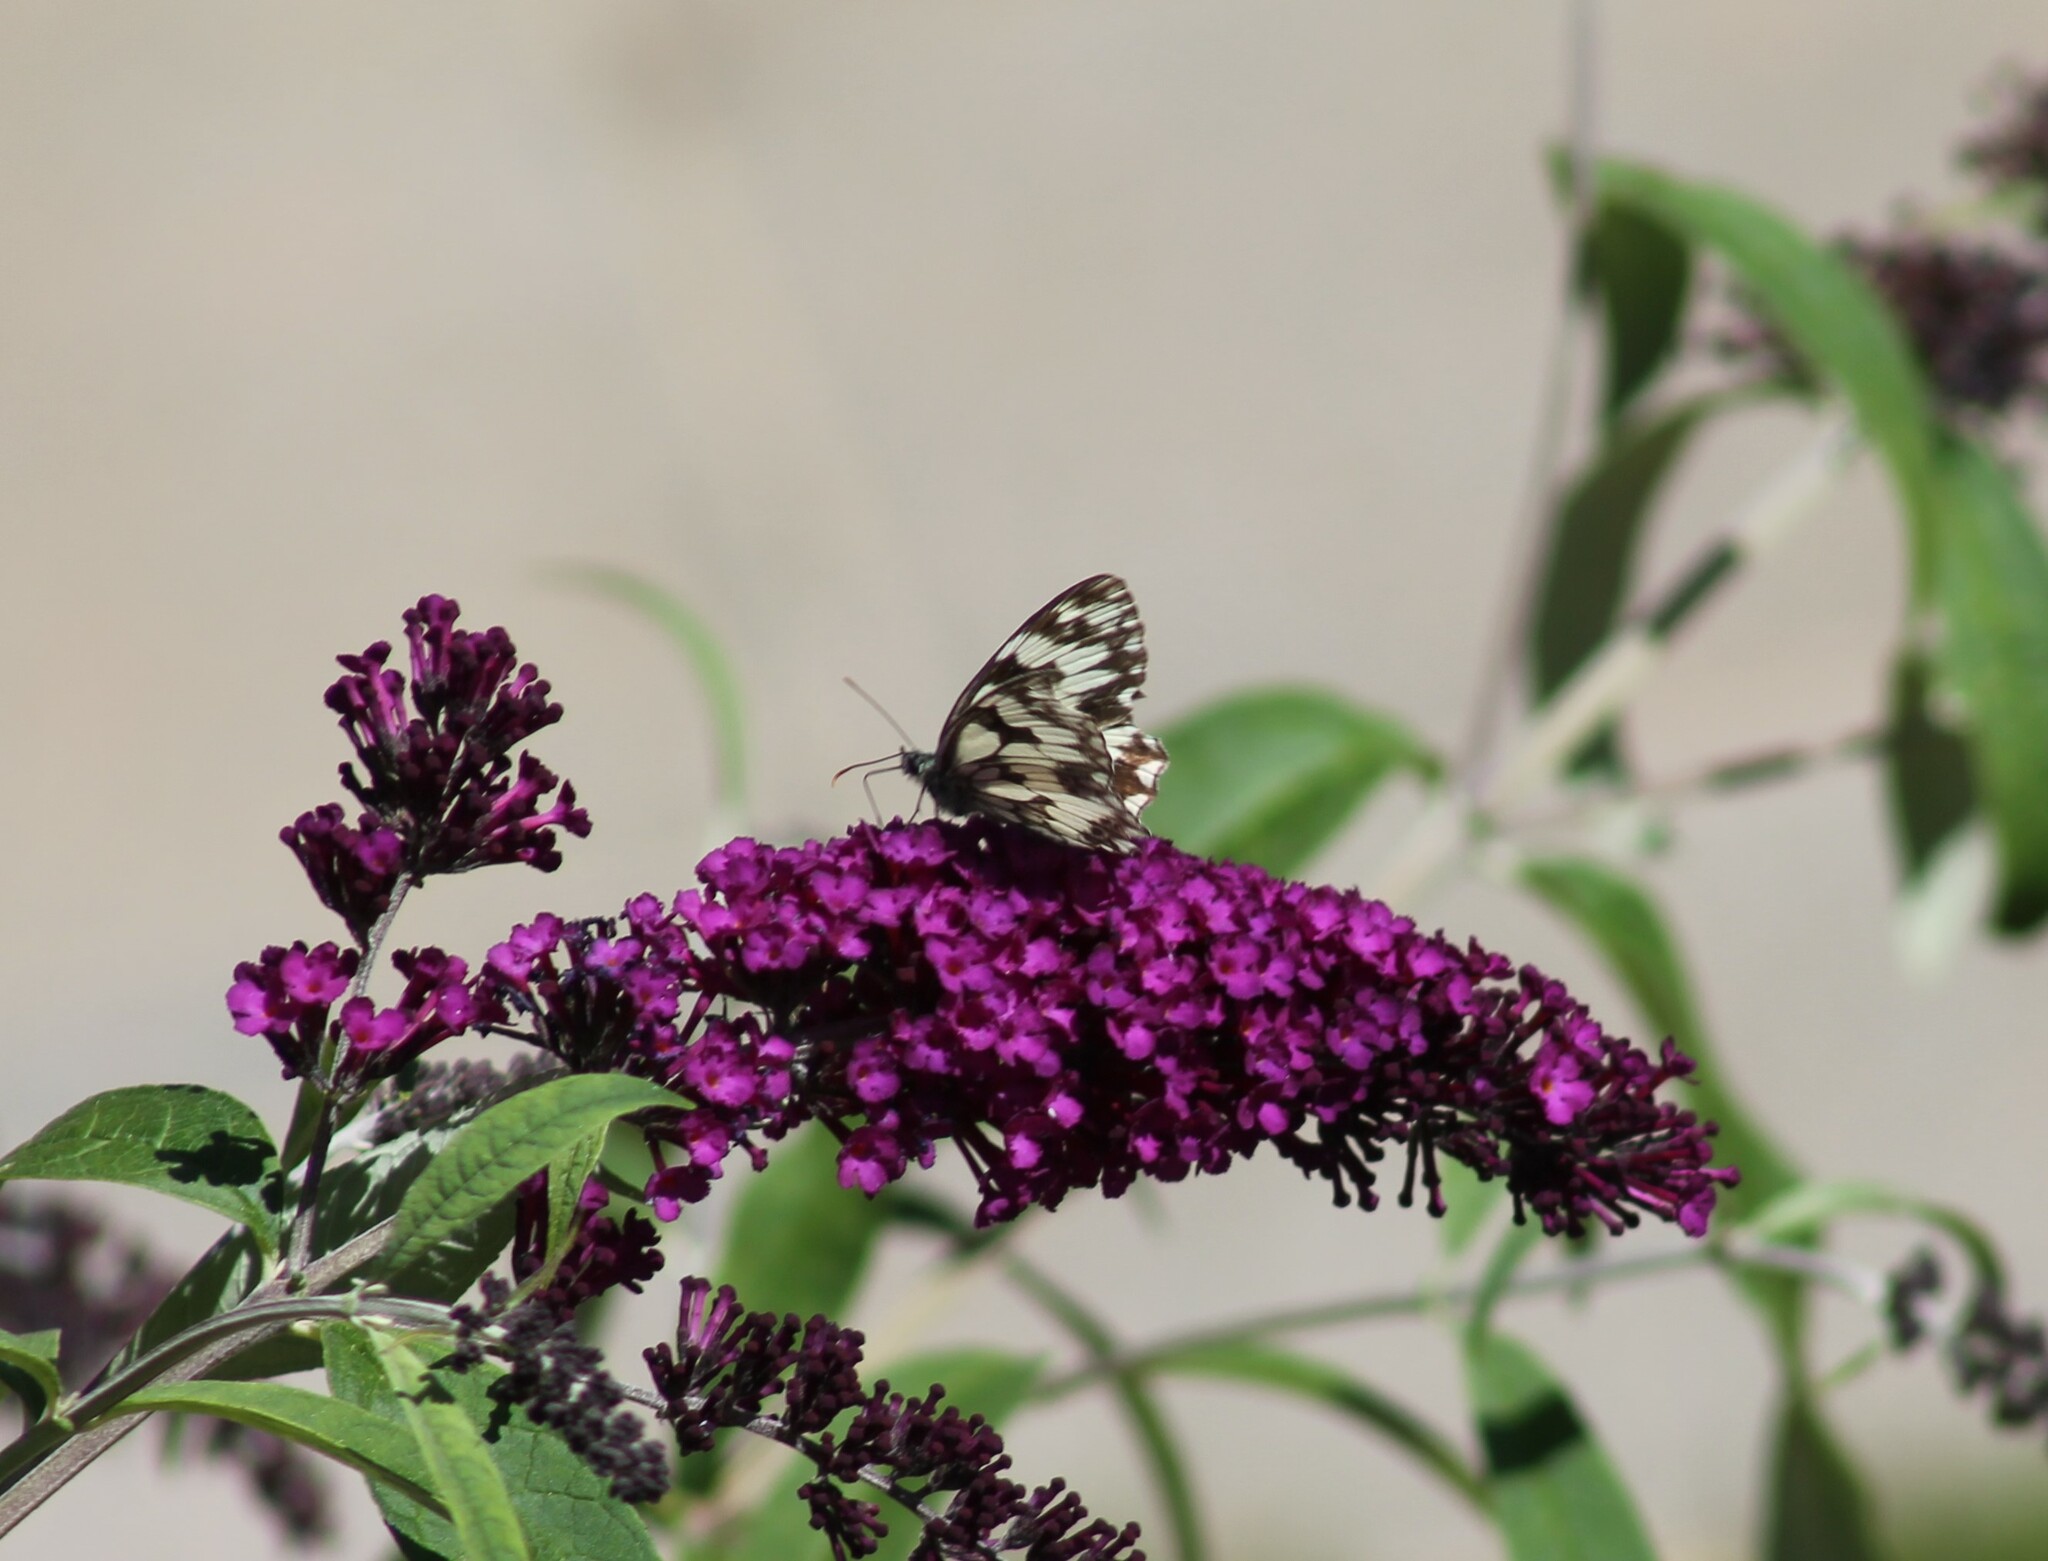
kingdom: Animalia
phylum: Arthropoda
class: Insecta
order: Lepidoptera
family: Nymphalidae
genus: Melanargia
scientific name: Melanargia galathea
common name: Marbled white
